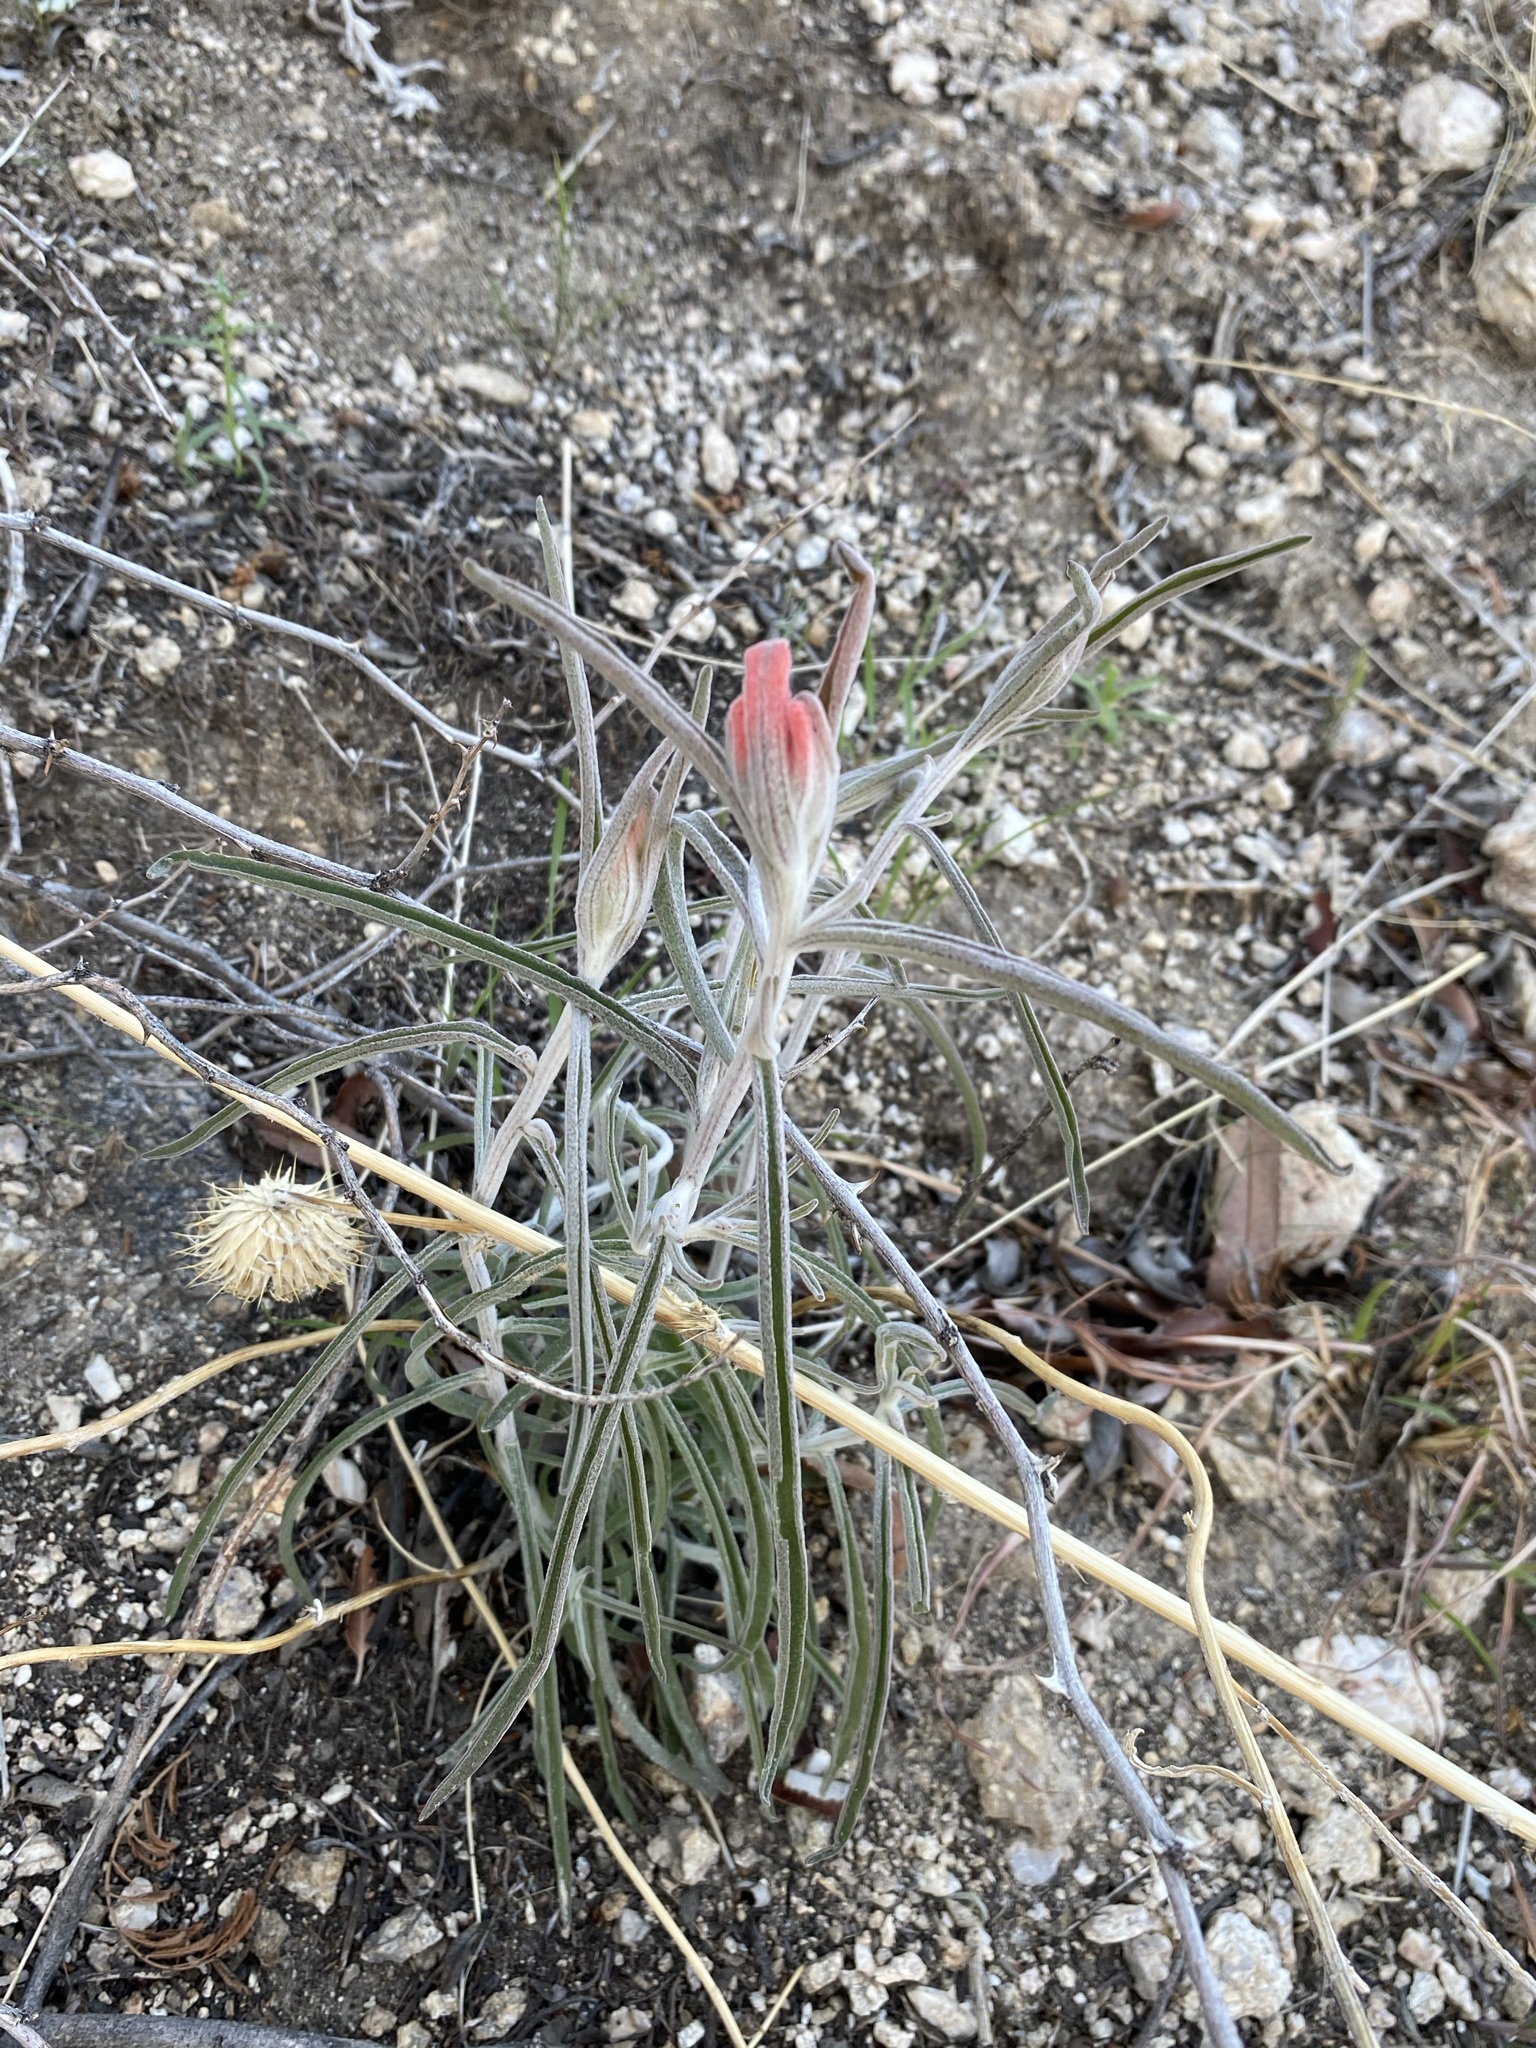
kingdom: Plantae
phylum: Tracheophyta
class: Magnoliopsida
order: Lamiales
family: Orobanchaceae
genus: Castilleja
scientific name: Castilleja lanata
